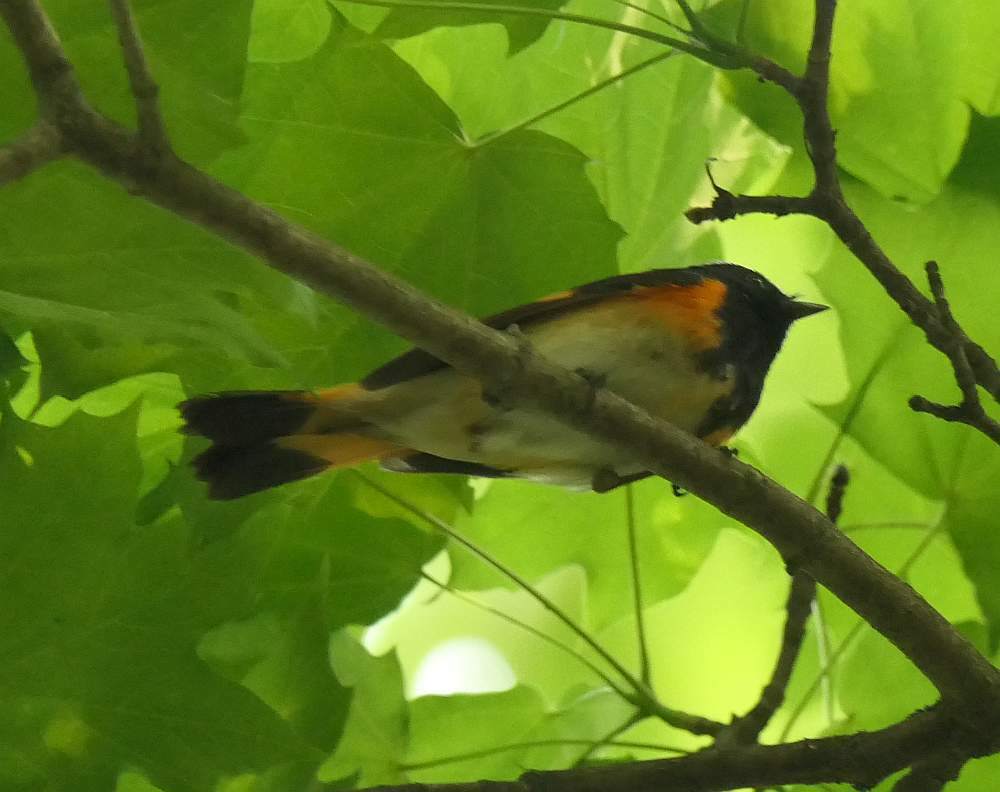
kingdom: Animalia
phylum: Chordata
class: Aves
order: Passeriformes
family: Parulidae
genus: Setophaga
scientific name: Setophaga ruticilla
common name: American redstart
